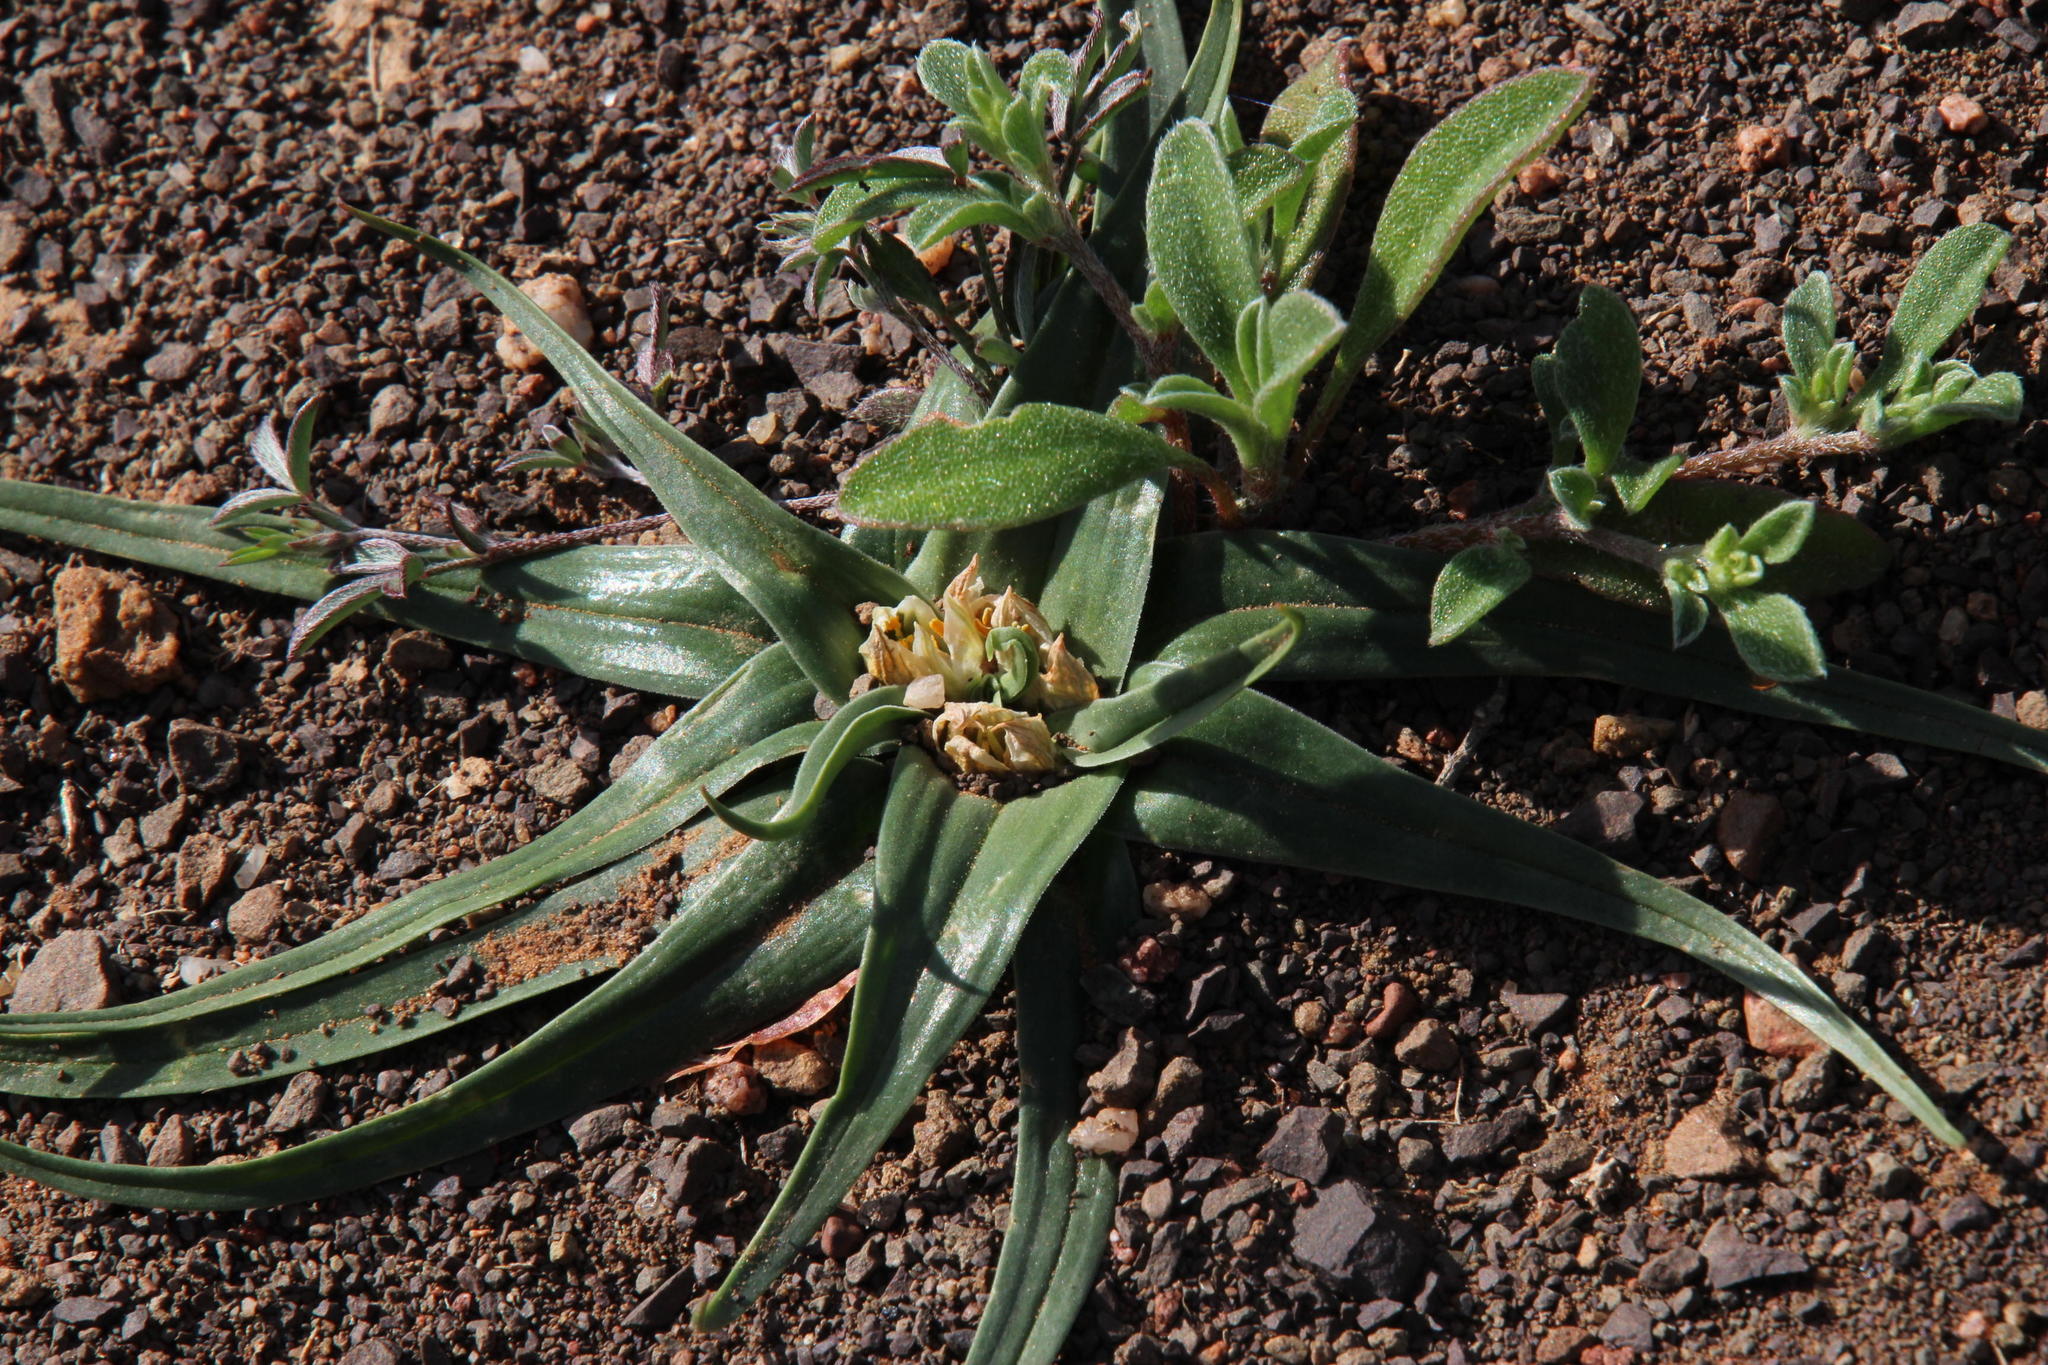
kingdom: Plantae
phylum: Tracheophyta
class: Liliopsida
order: Liliales
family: Colchicaceae
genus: Colchicum
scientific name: Colchicum asteroides
